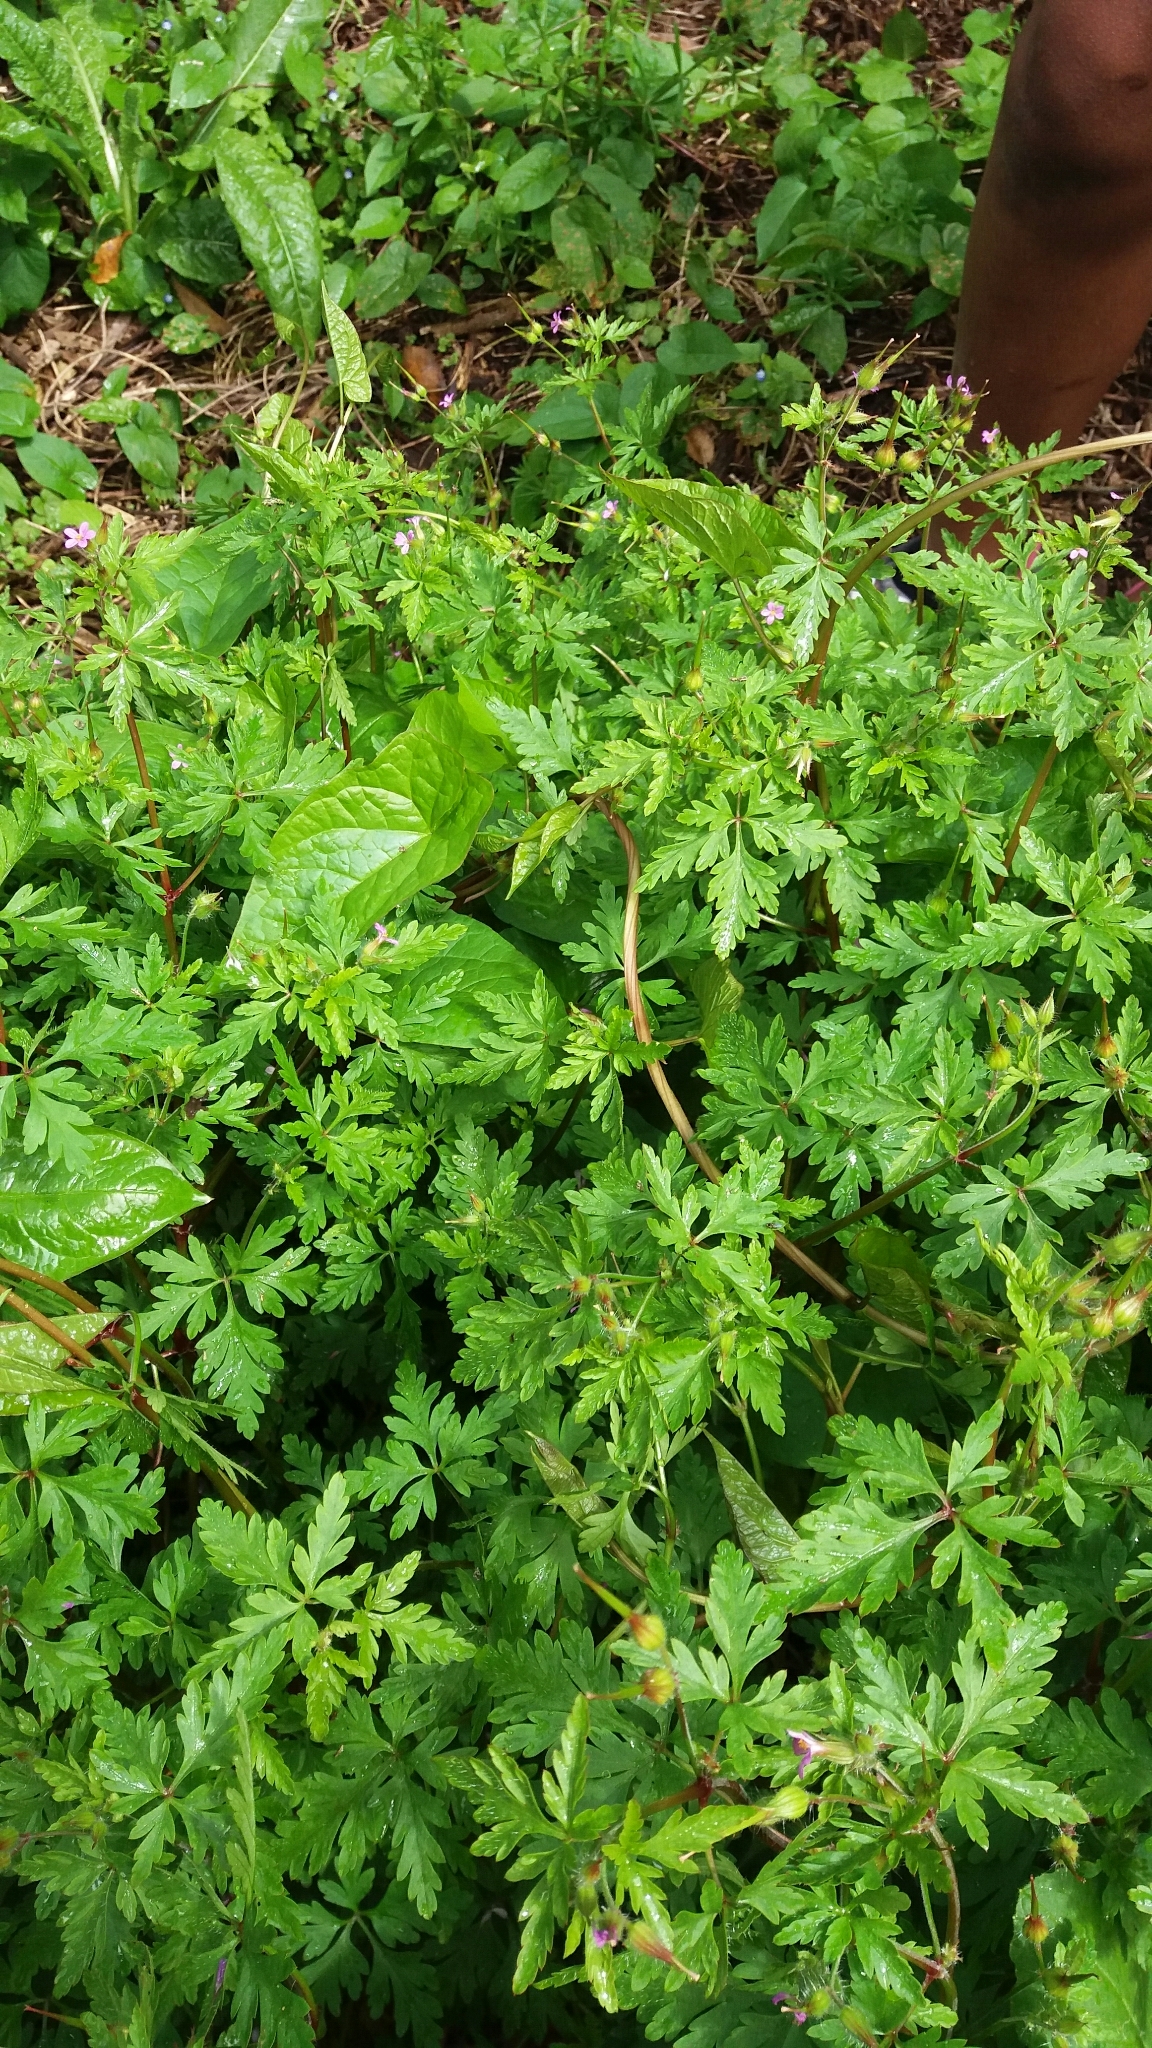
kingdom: Plantae
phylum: Tracheophyta
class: Magnoliopsida
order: Geraniales
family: Geraniaceae
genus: Geranium
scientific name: Geranium robertianum
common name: Herb-robert
